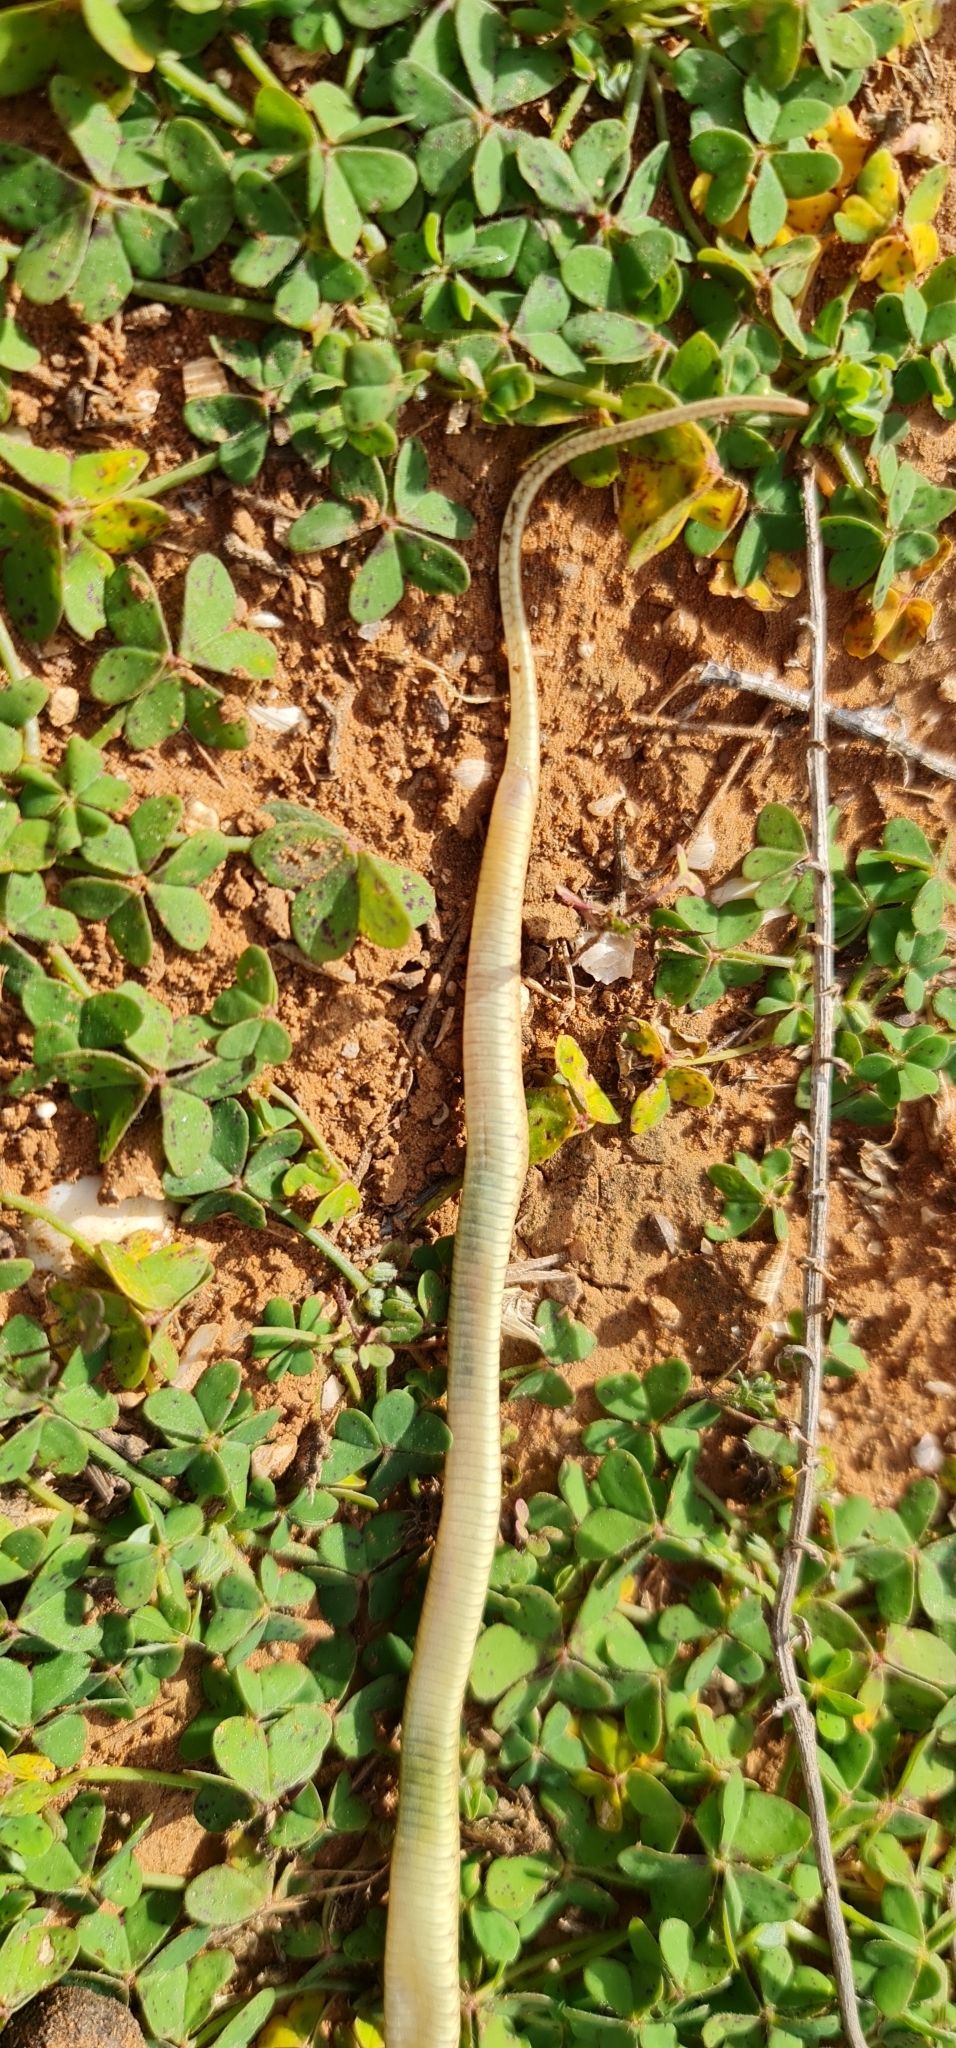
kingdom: Animalia
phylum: Chordata
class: Squamata
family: Elapidae
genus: Pseudonaja
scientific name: Pseudonaja aspidorhyncha
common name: Strap-snouted brown snake
